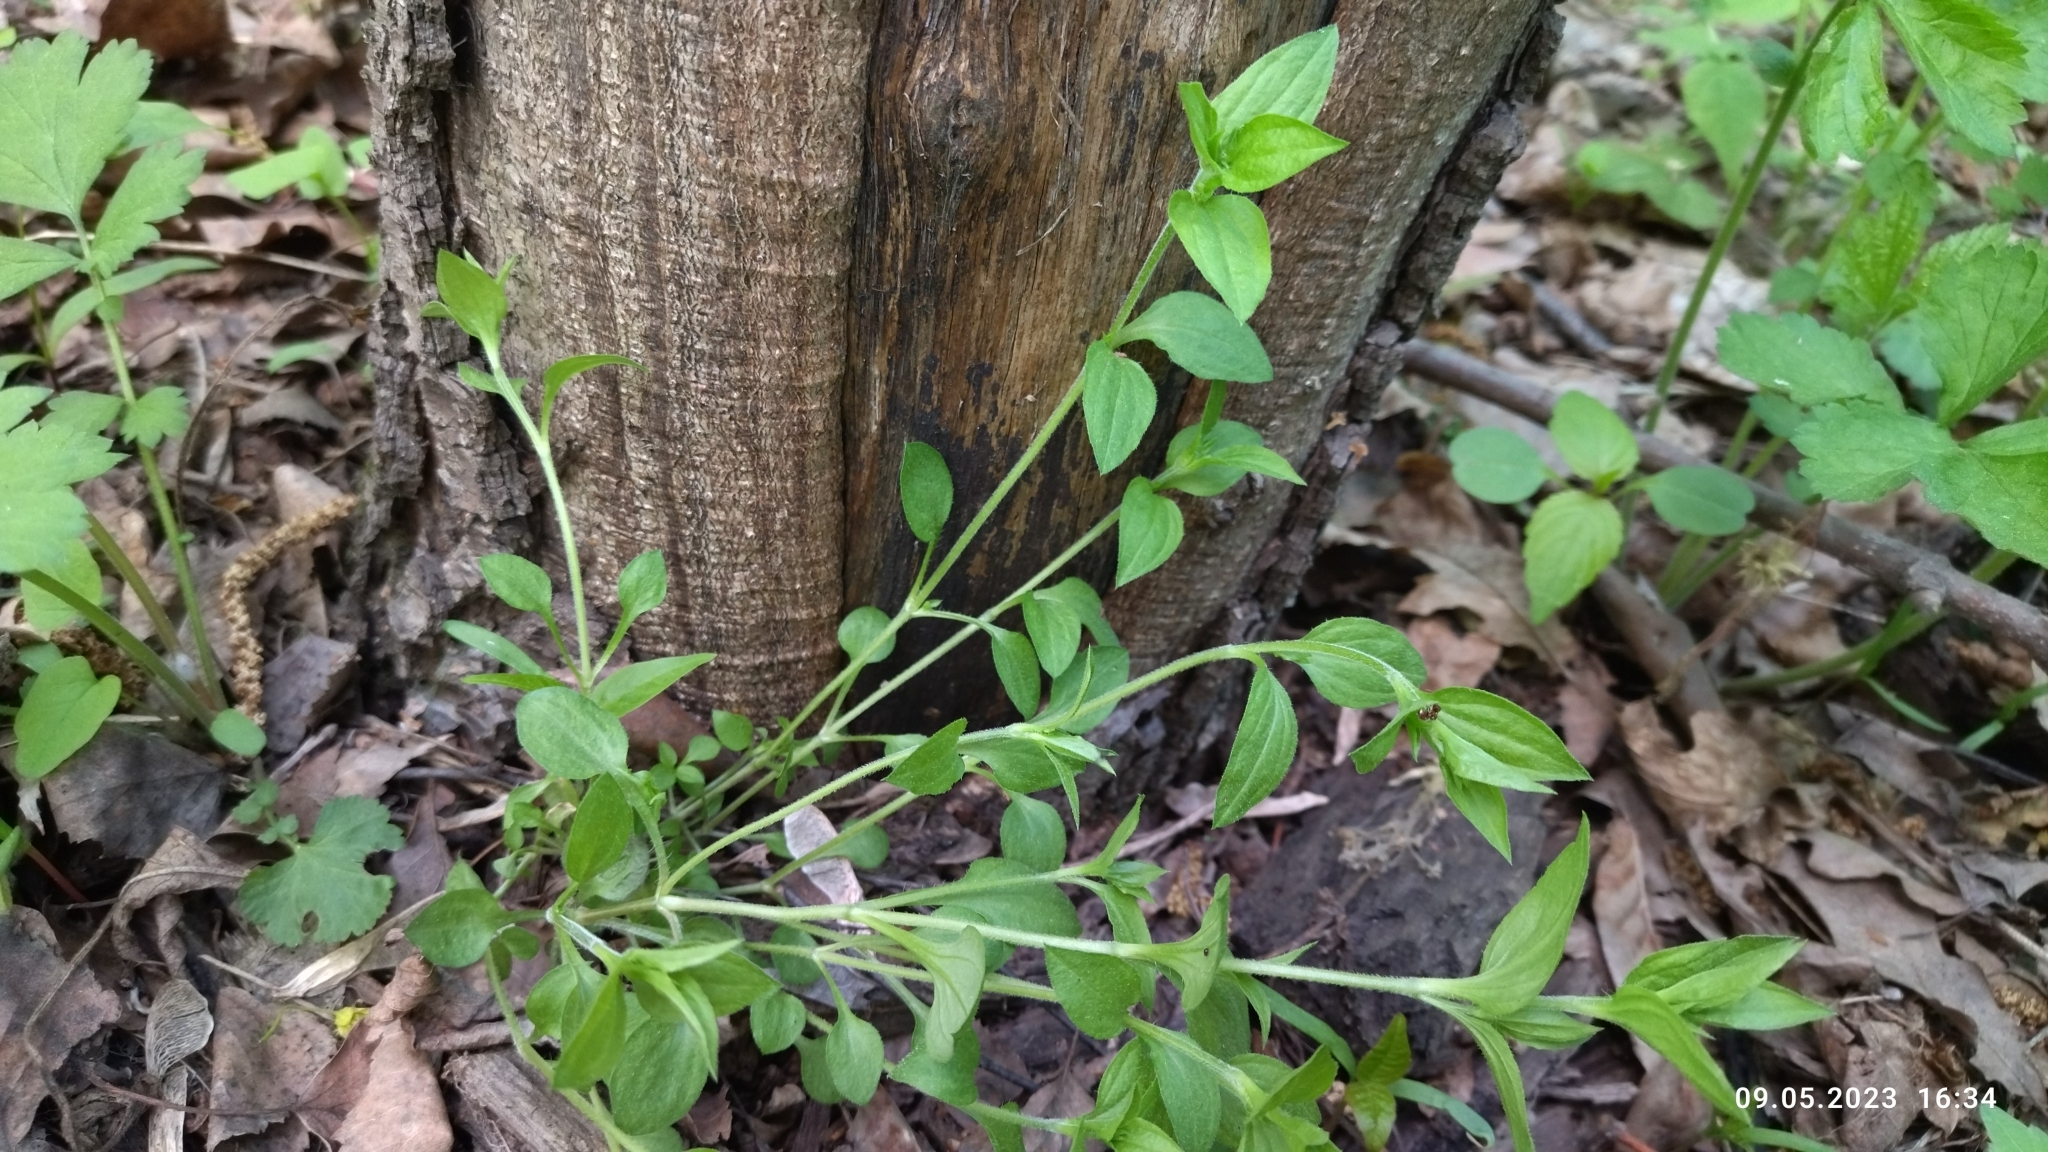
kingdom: Plantae
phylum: Tracheophyta
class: Magnoliopsida
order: Caryophyllales
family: Caryophyllaceae
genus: Moehringia
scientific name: Moehringia trinervia
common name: Three-nerved sandwort
